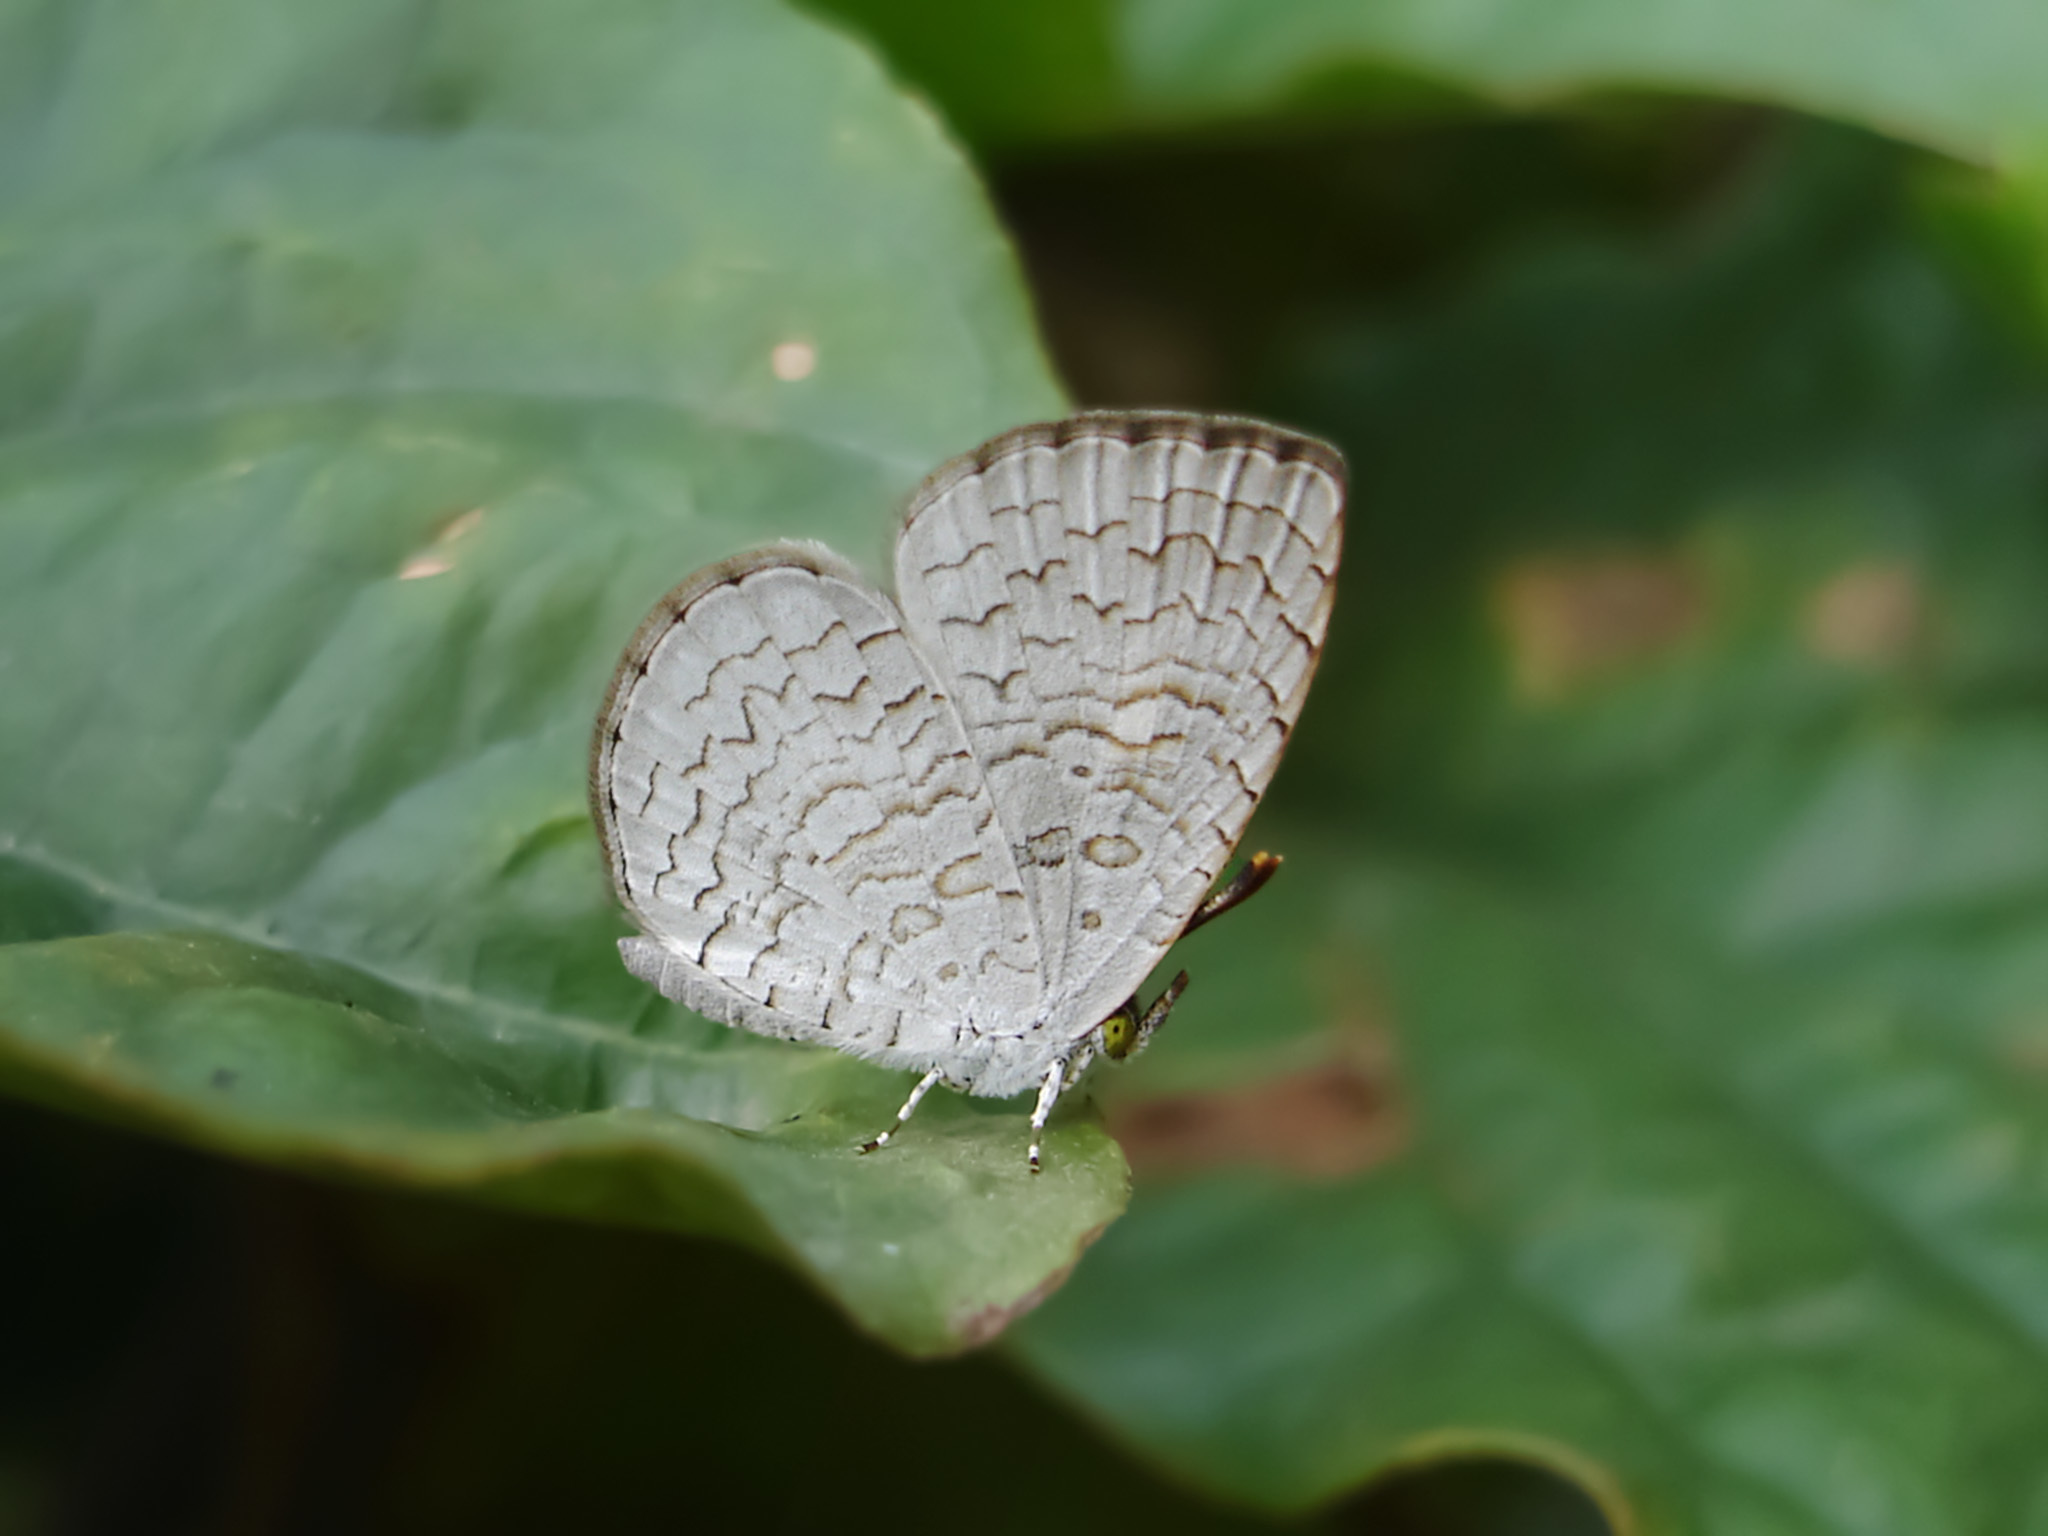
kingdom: Animalia
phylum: Arthropoda
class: Insecta
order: Lepidoptera
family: Lycaenidae
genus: Spalgis
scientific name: Spalgis epius
